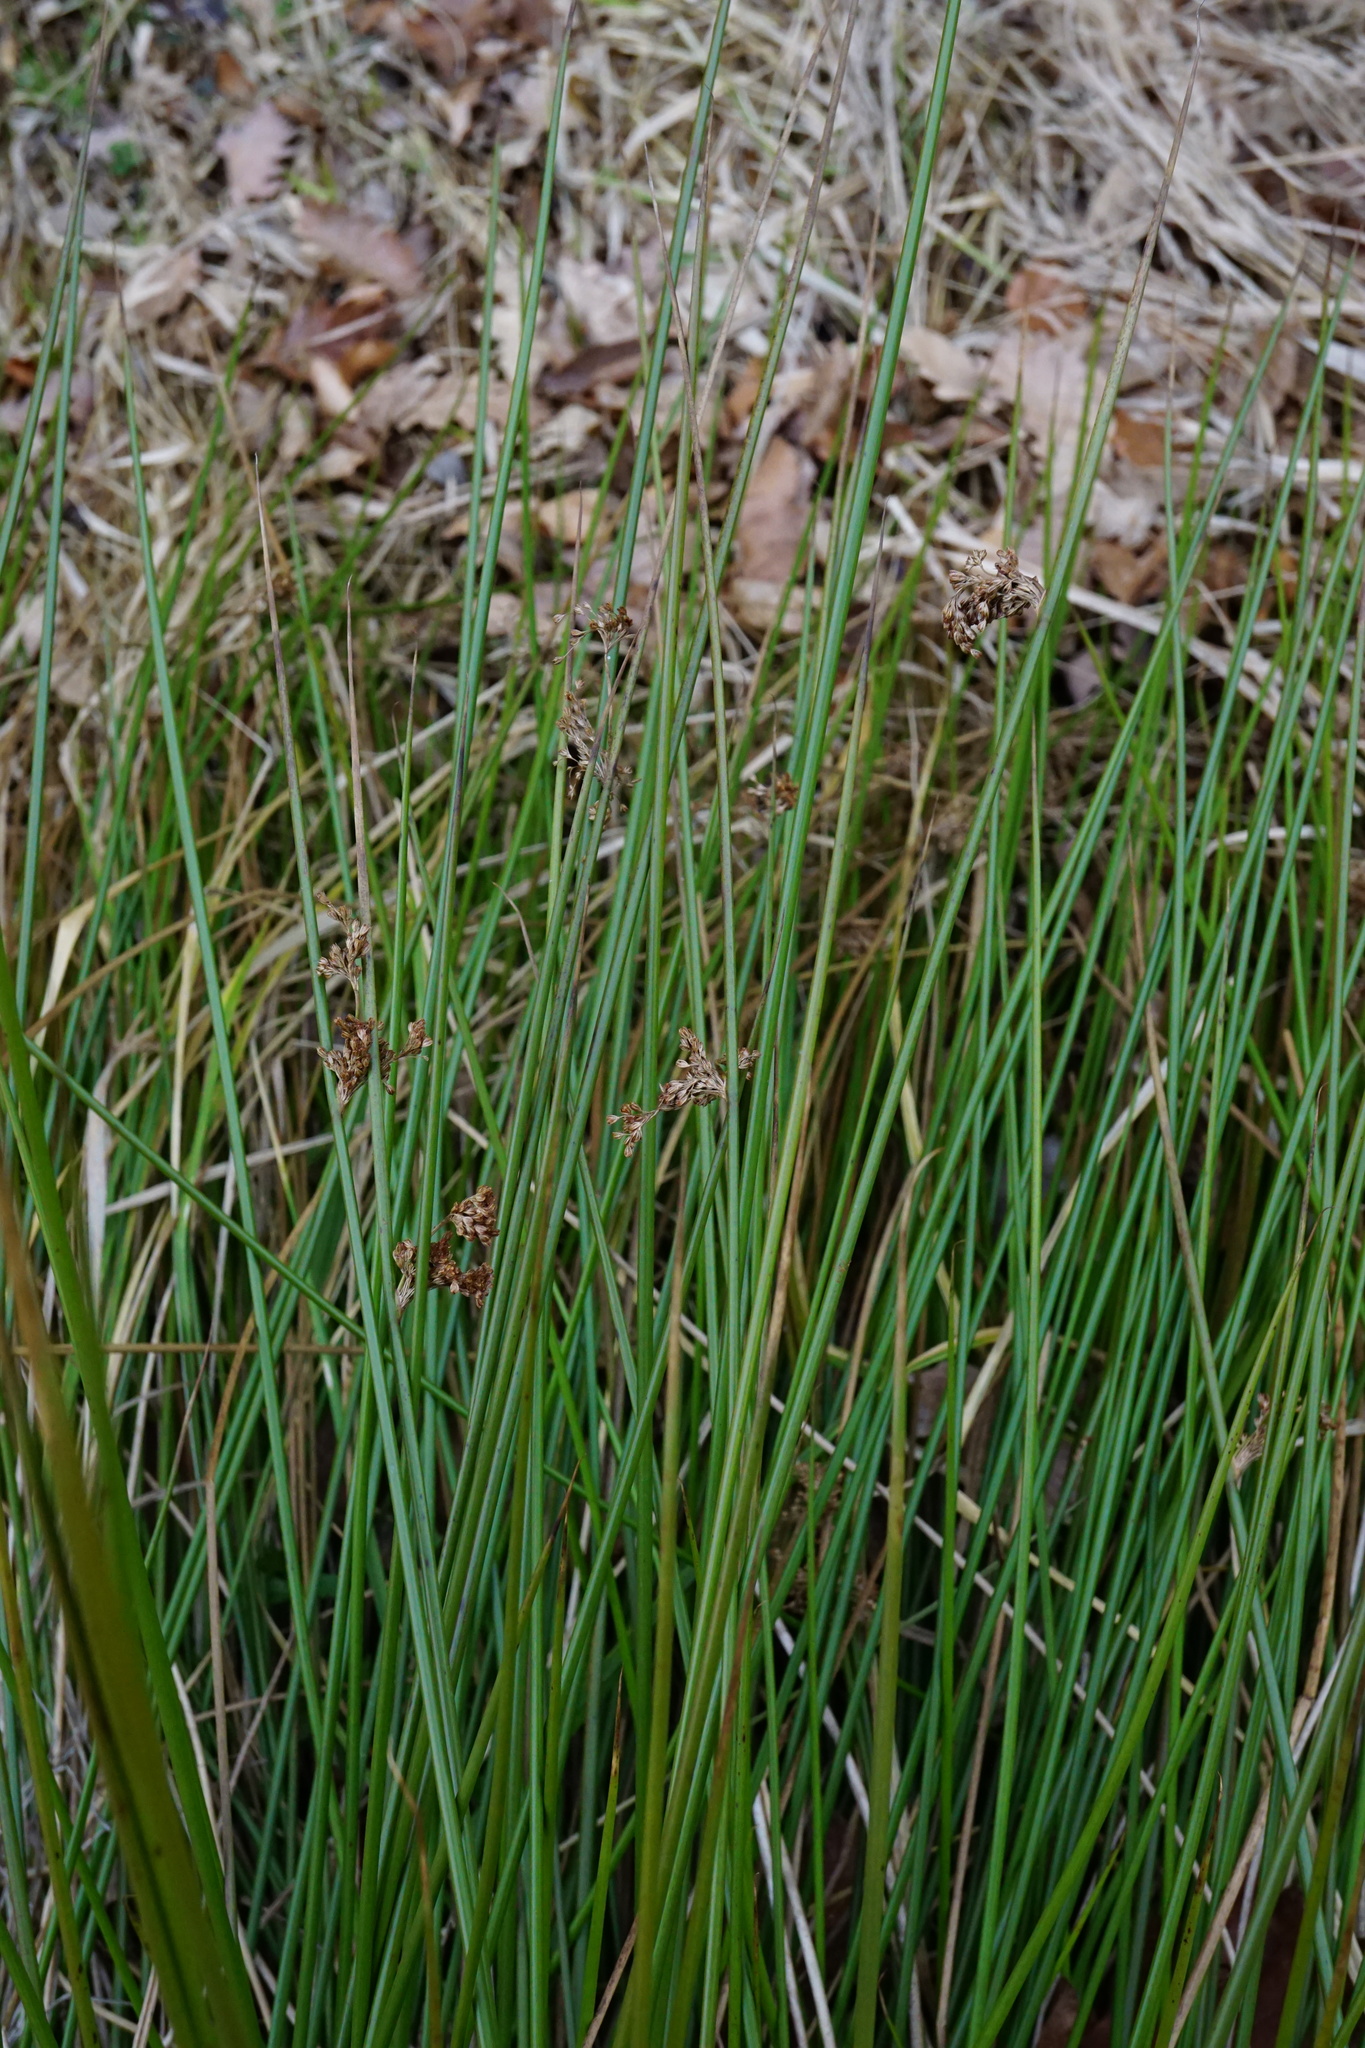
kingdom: Plantae
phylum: Tracheophyta
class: Liliopsida
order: Poales
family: Juncaceae
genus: Juncus
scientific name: Juncus effusus
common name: Soft rush
